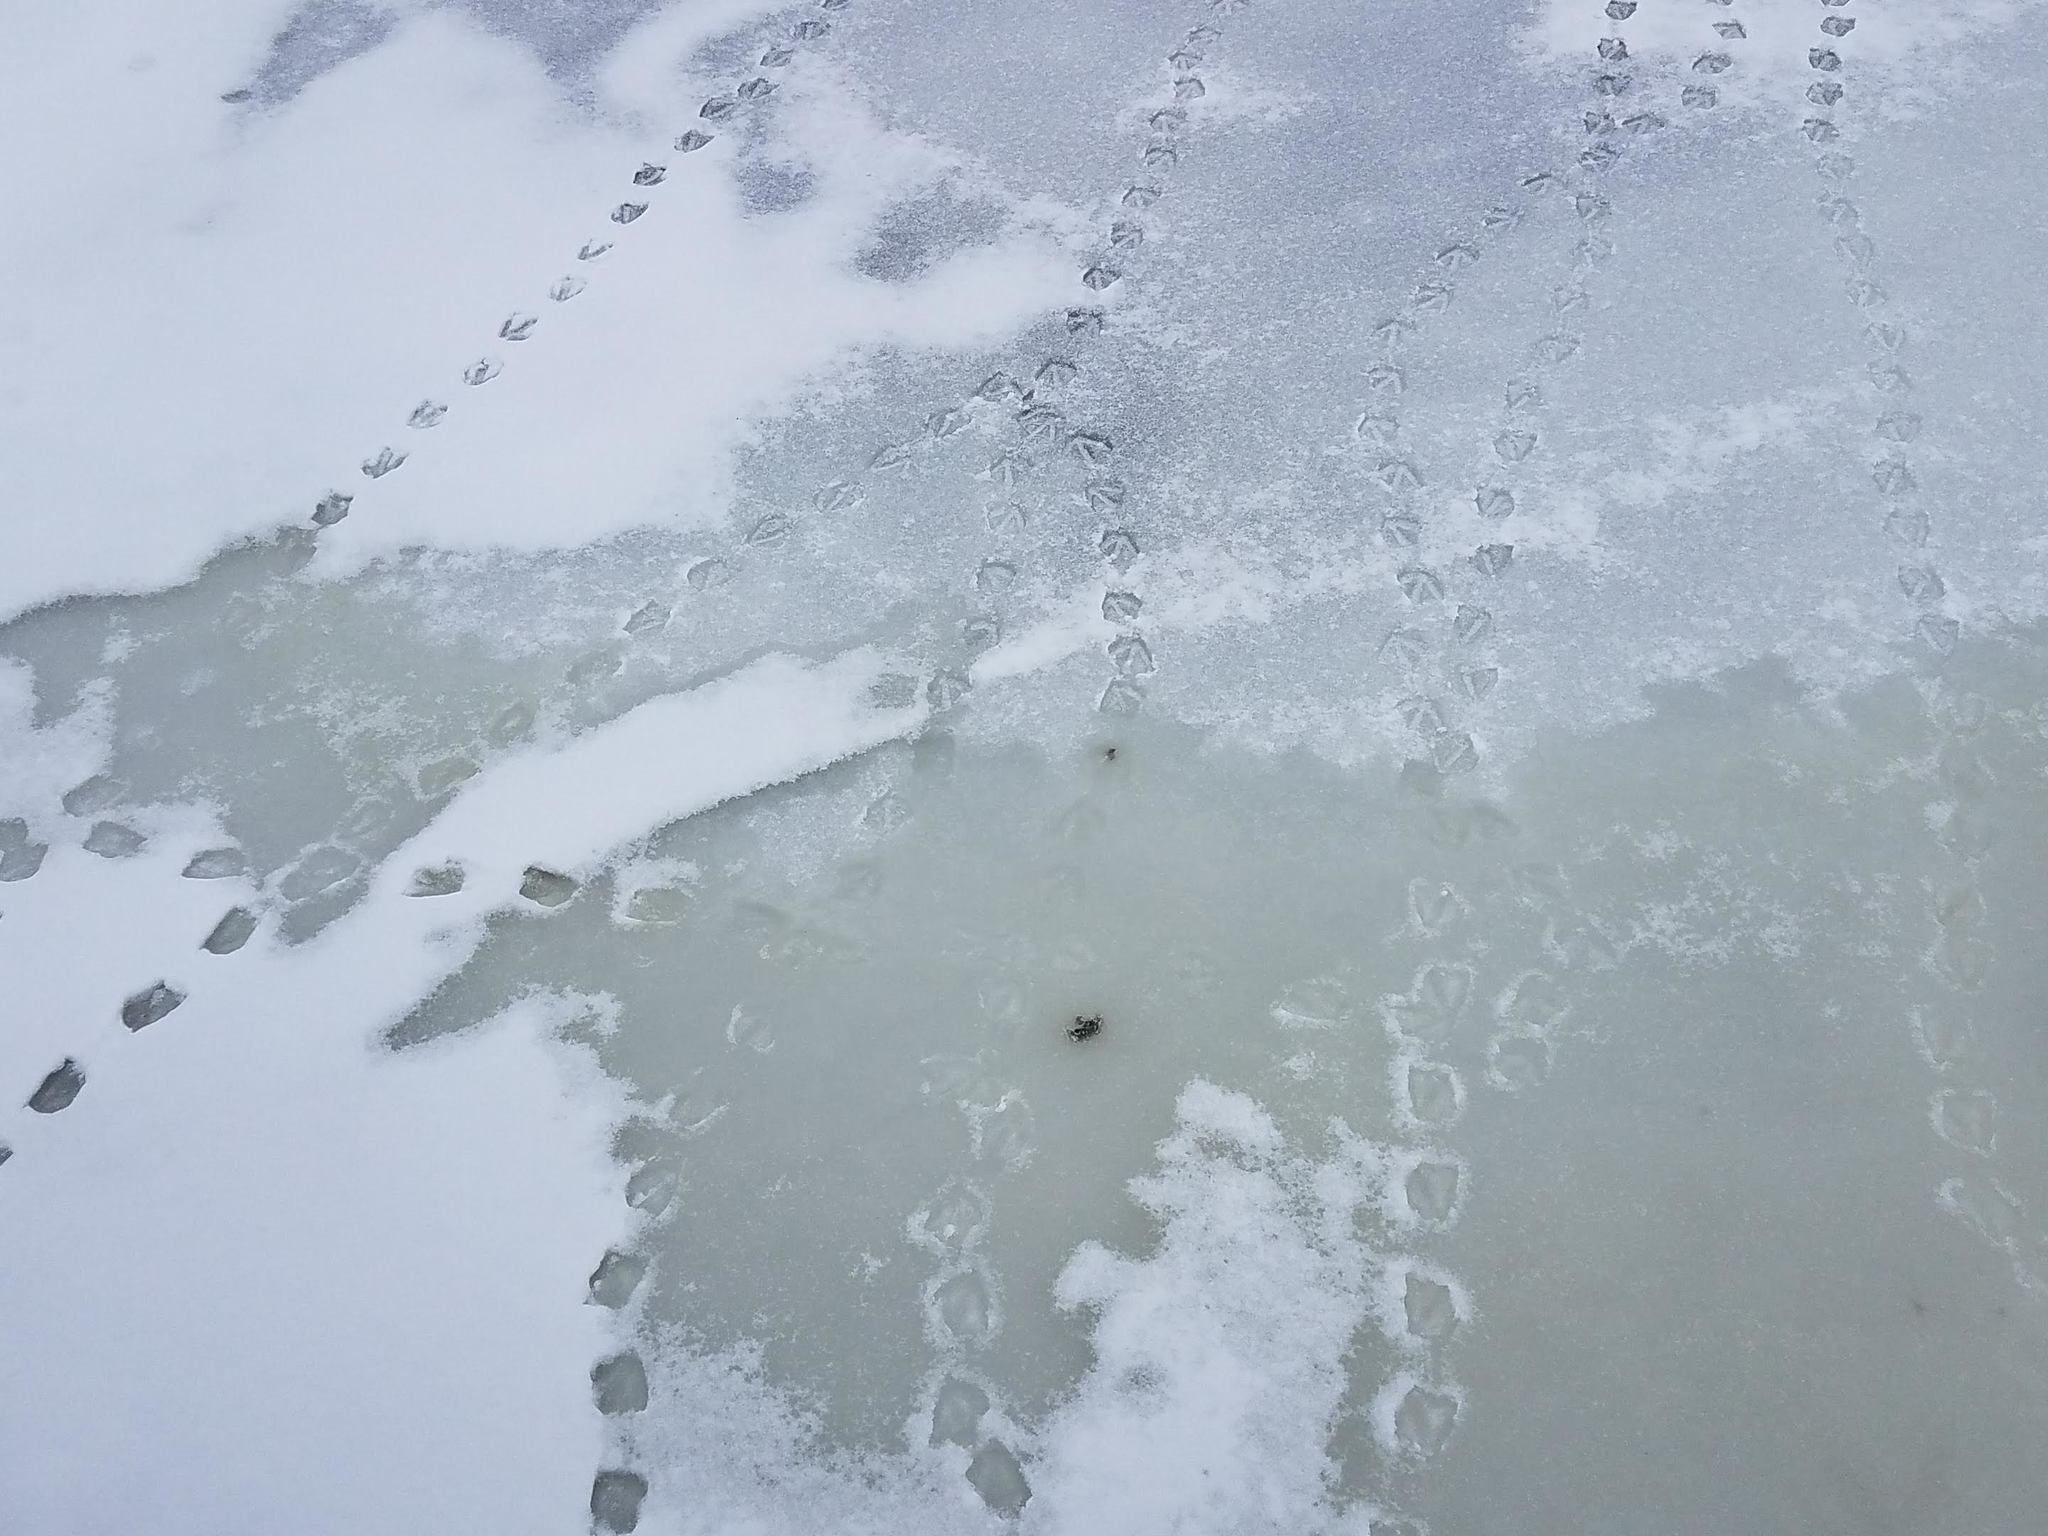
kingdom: Animalia
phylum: Chordata
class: Aves
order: Anseriformes
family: Anatidae
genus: Branta
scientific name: Branta canadensis
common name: Canada goose
